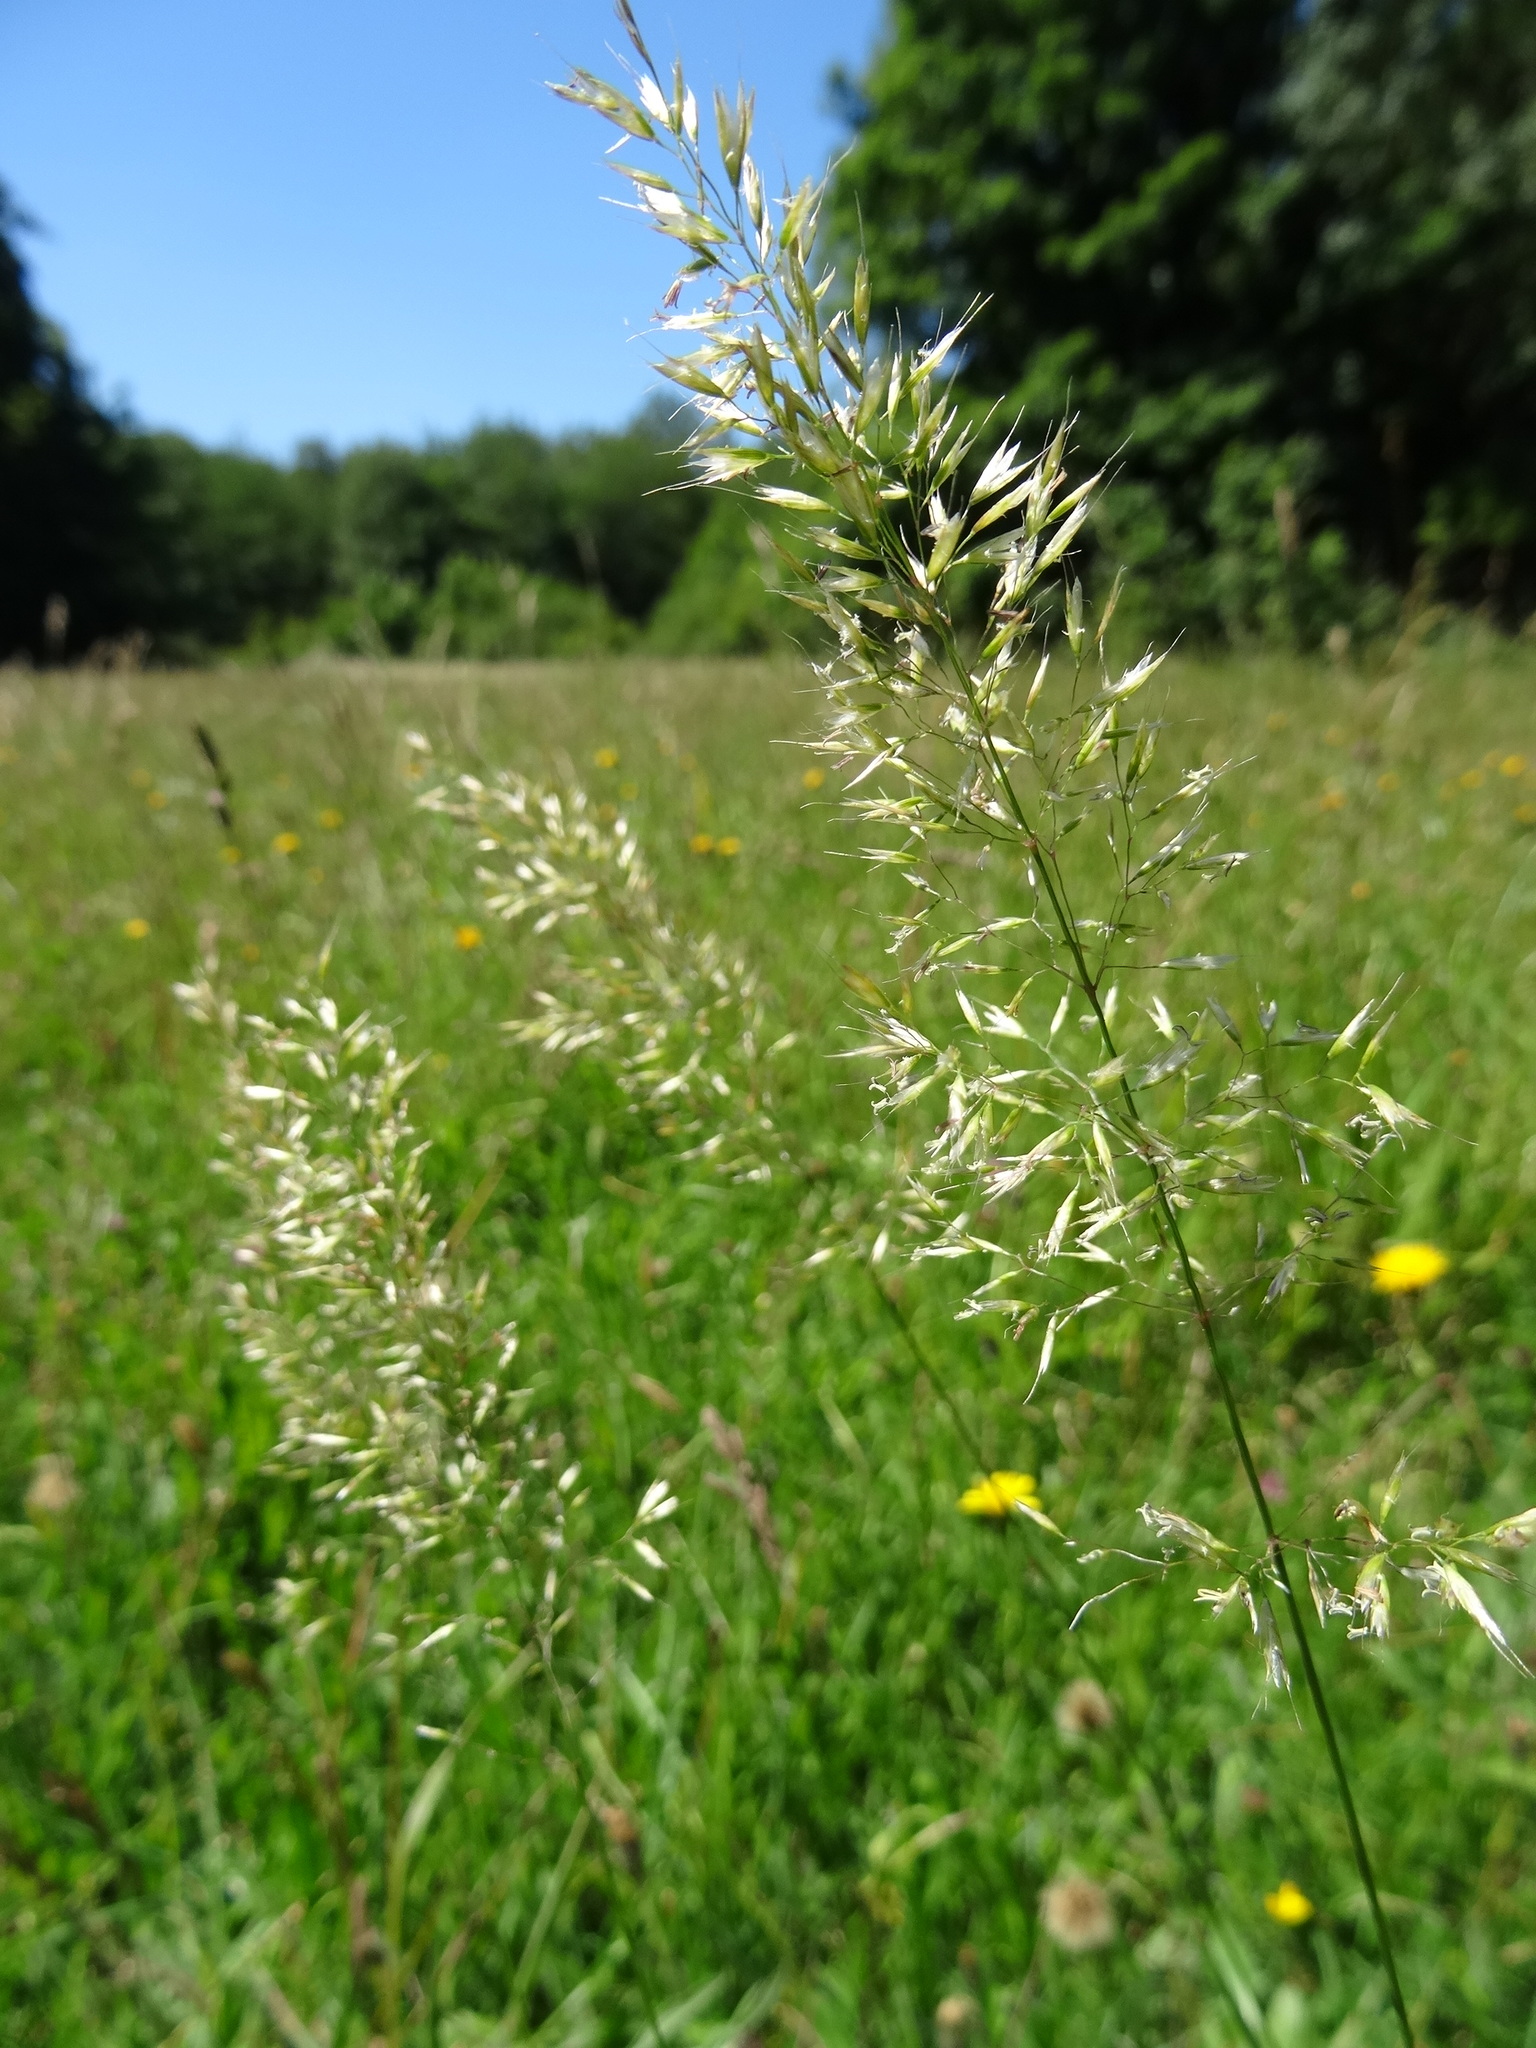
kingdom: Plantae
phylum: Tracheophyta
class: Liliopsida
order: Poales
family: Poaceae
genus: Trisetum
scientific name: Trisetum flavescens
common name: Yellow oat-grass
